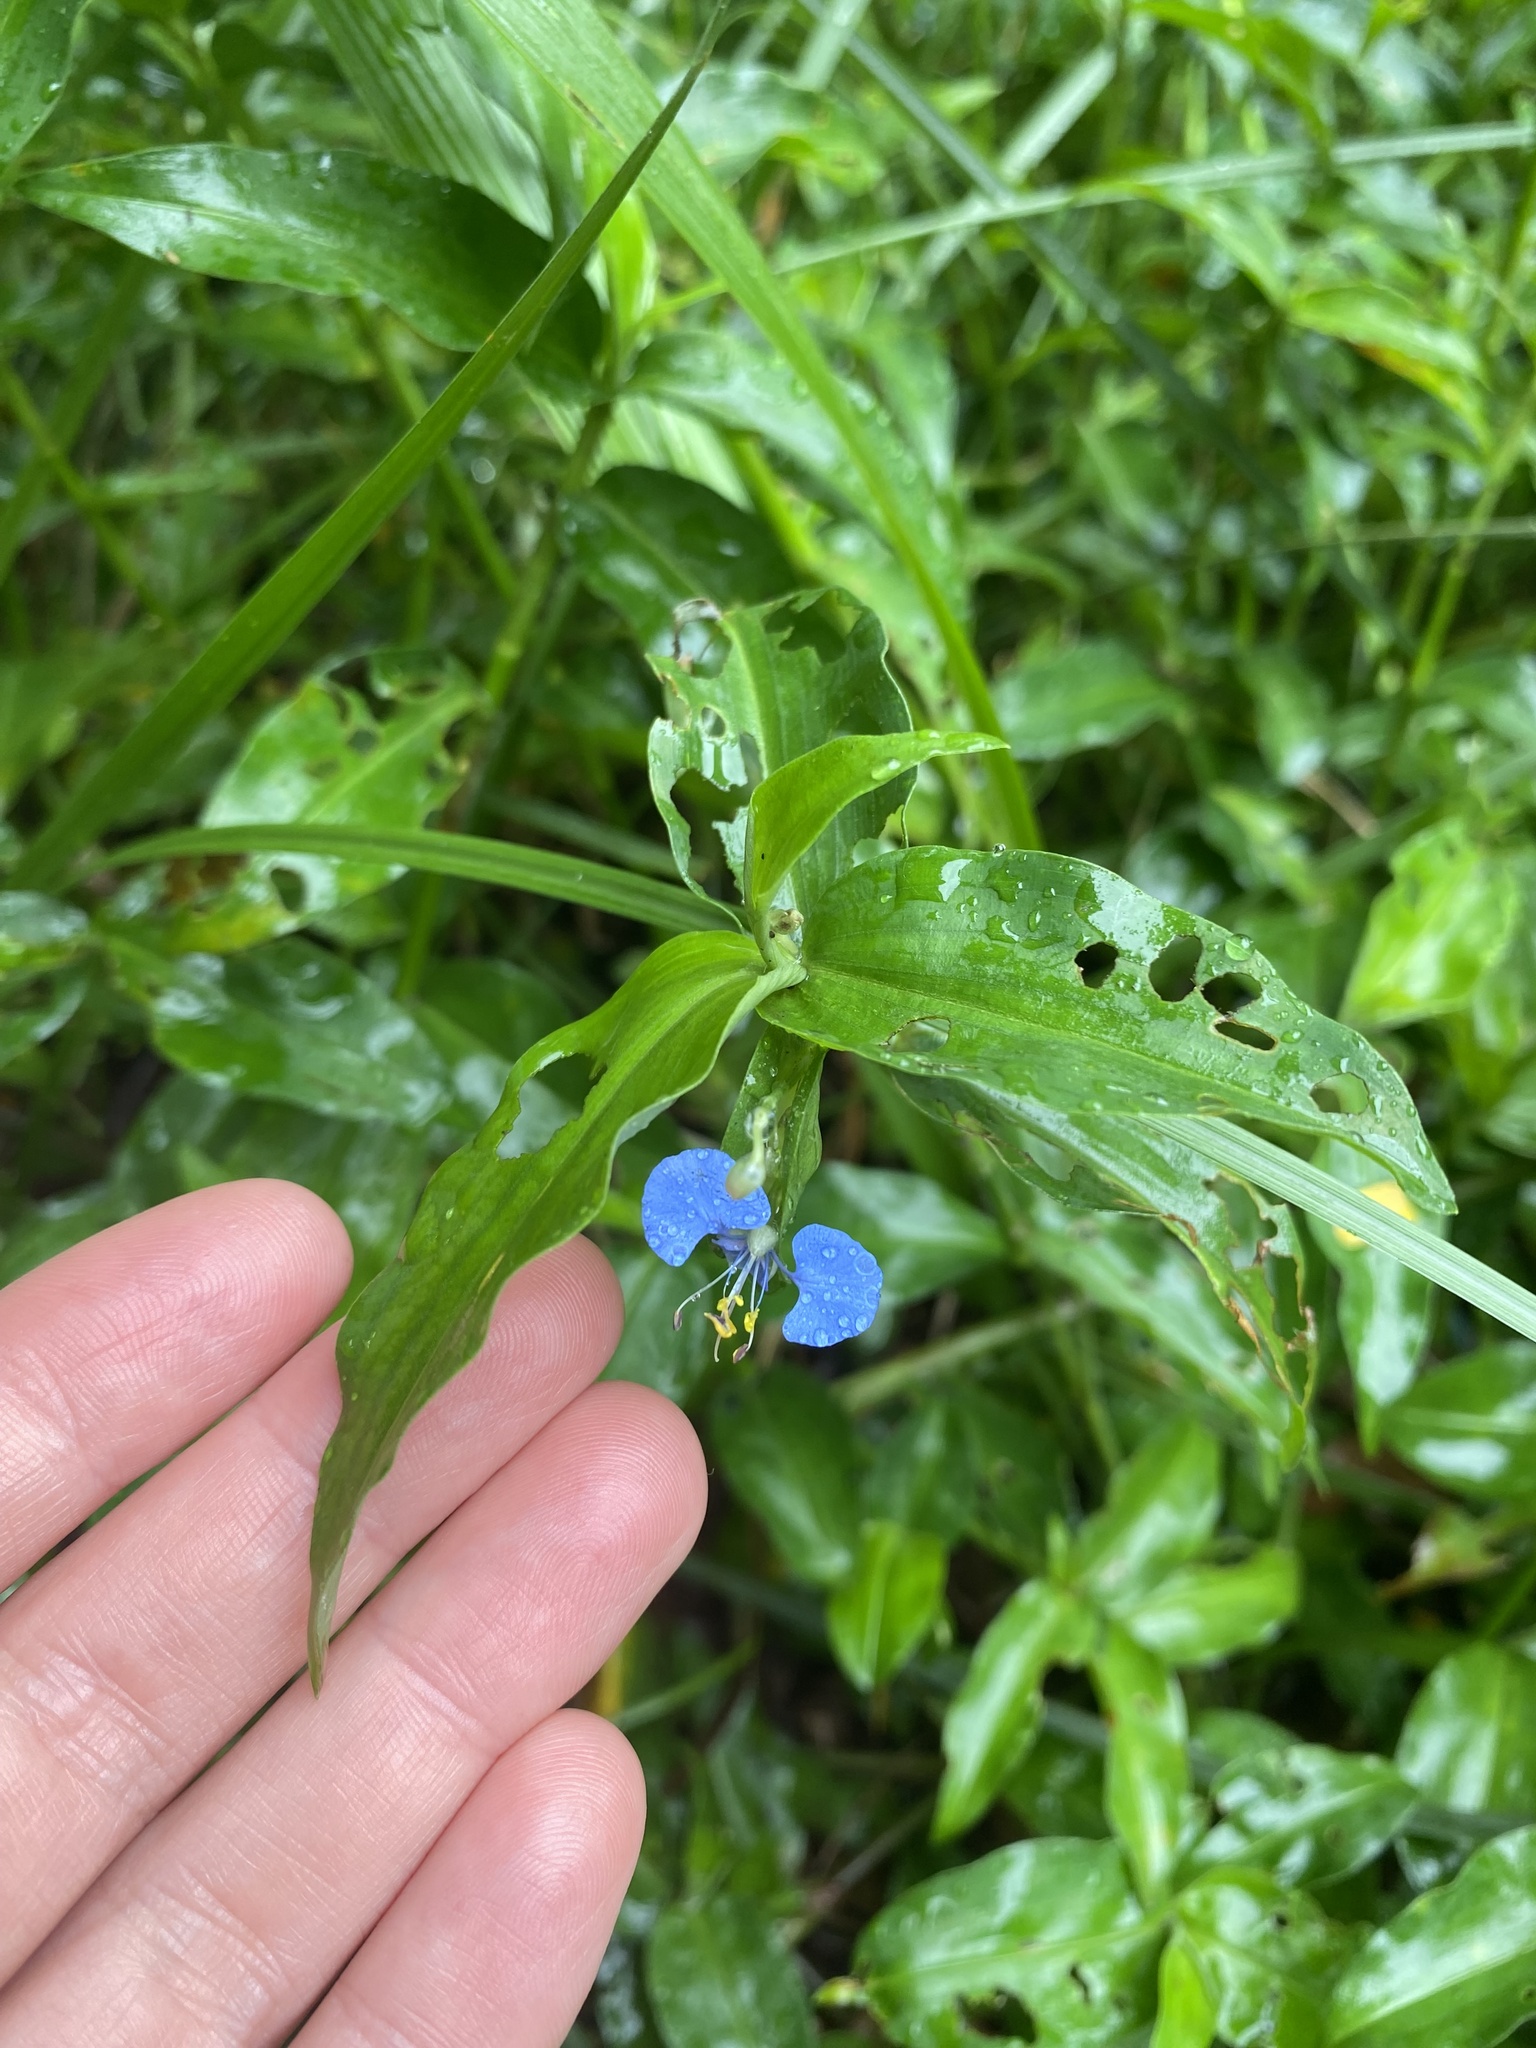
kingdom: Plantae
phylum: Tracheophyta
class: Liliopsida
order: Commelinales
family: Commelinaceae
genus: Commelina
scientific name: Commelina benghalensis
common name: Jio
